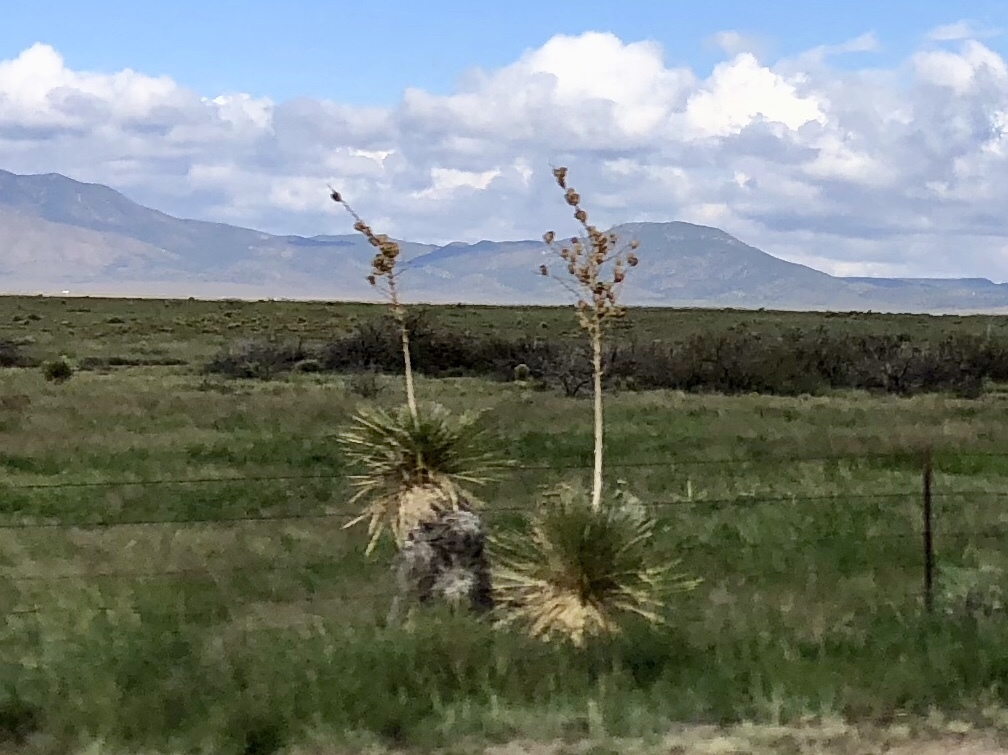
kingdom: Plantae
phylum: Tracheophyta
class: Liliopsida
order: Asparagales
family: Asparagaceae
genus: Yucca
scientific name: Yucca elata
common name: Palmella
